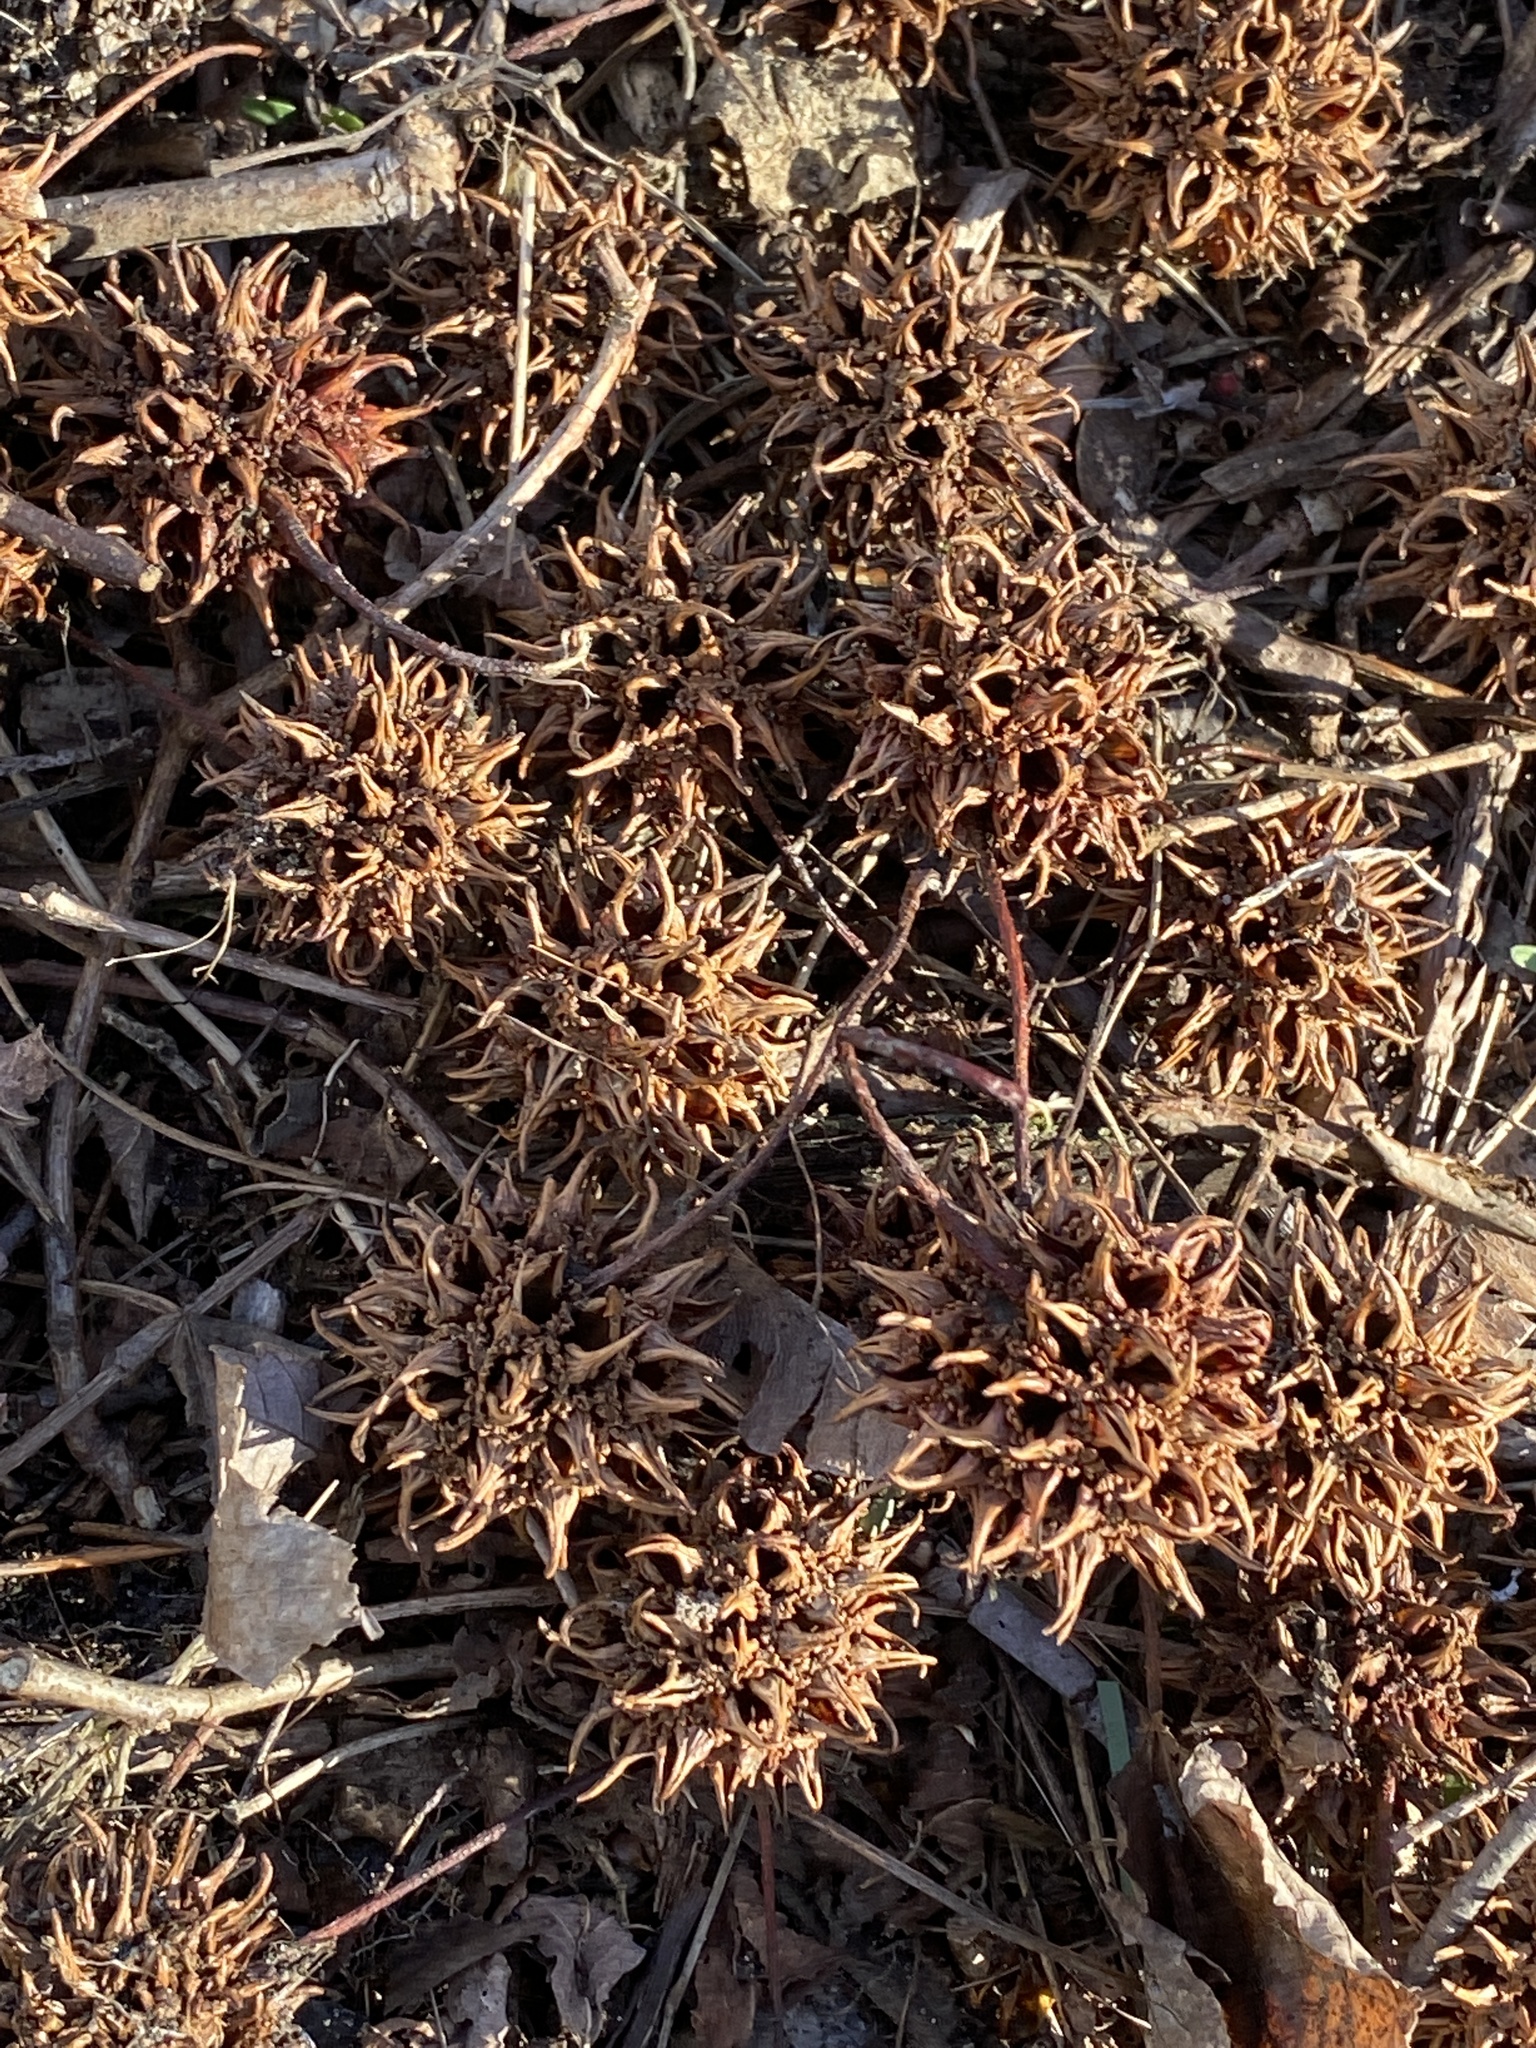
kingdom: Plantae
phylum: Tracheophyta
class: Magnoliopsida
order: Saxifragales
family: Altingiaceae
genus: Liquidambar
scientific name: Liquidambar styraciflua
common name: Sweet gum
